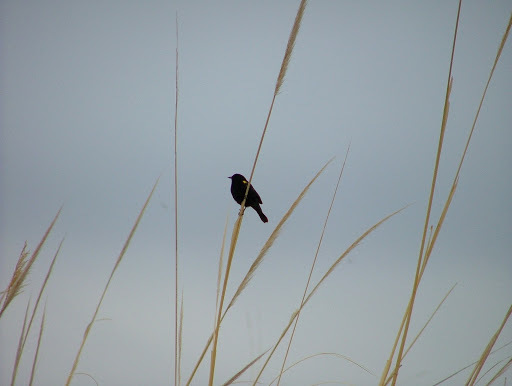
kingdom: Animalia
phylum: Chordata
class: Aves
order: Passeriformes
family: Icteridae
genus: Agelasticus
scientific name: Agelasticus thilius
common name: Yellow-winged blackbird
